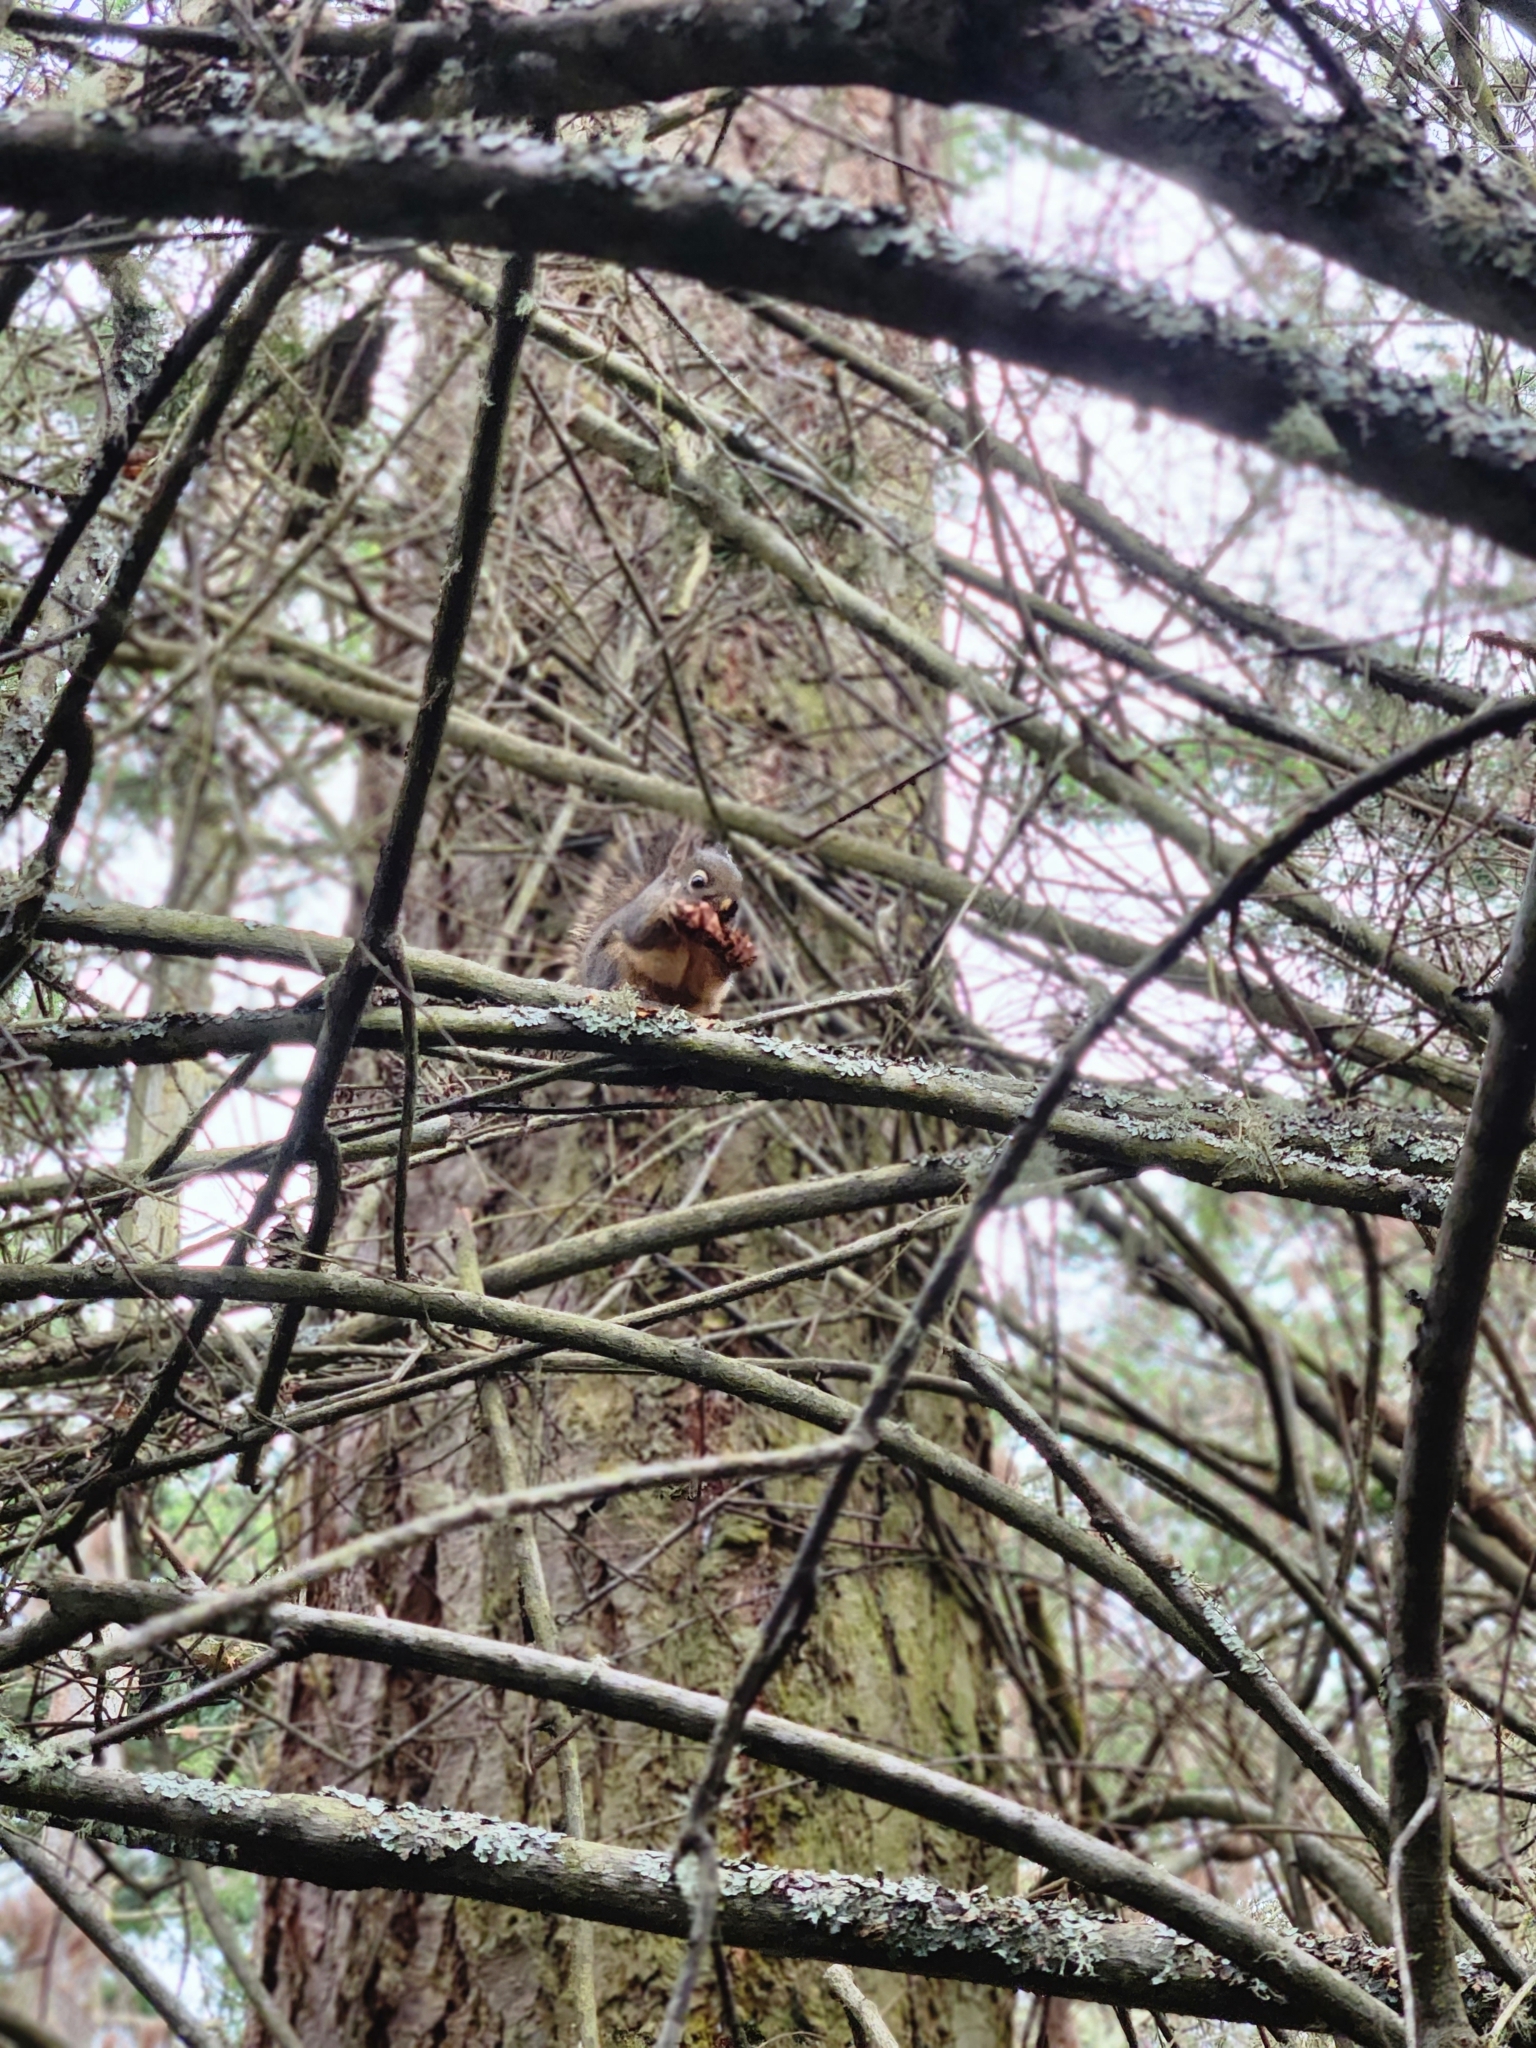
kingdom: Animalia
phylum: Chordata
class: Mammalia
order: Rodentia
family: Sciuridae
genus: Tamiasciurus
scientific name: Tamiasciurus douglasii
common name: Douglas's squirrel
